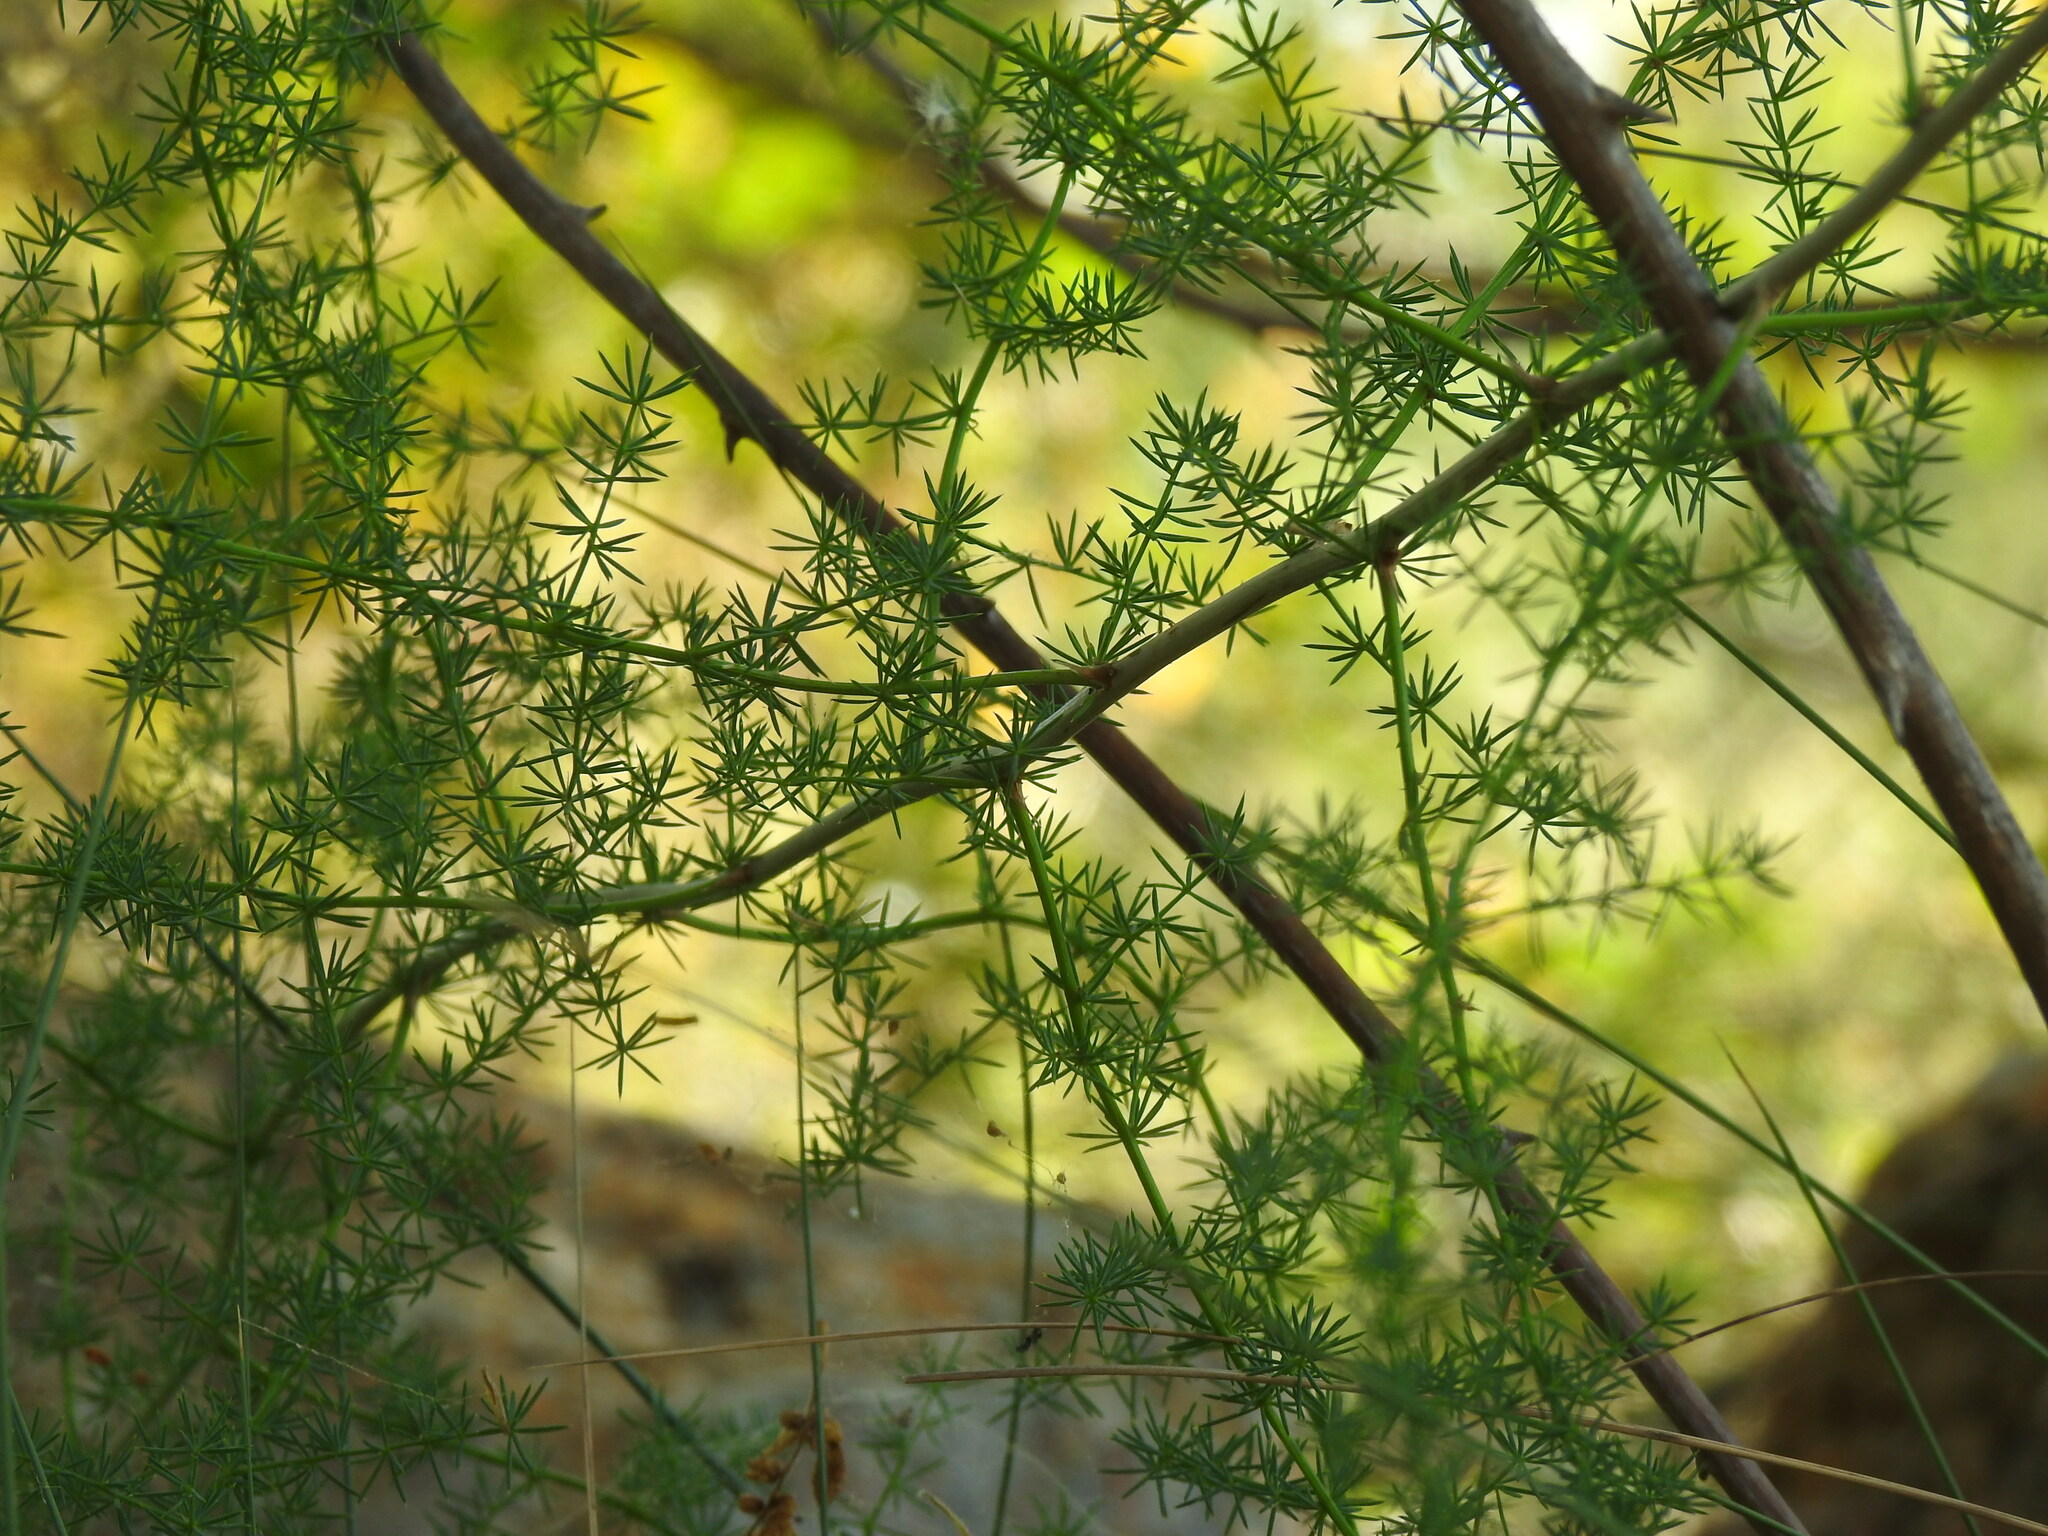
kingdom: Plantae
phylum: Tracheophyta
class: Liliopsida
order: Asparagales
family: Asparagaceae
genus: Asparagus
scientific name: Asparagus acutifolius
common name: Wild asparagus
